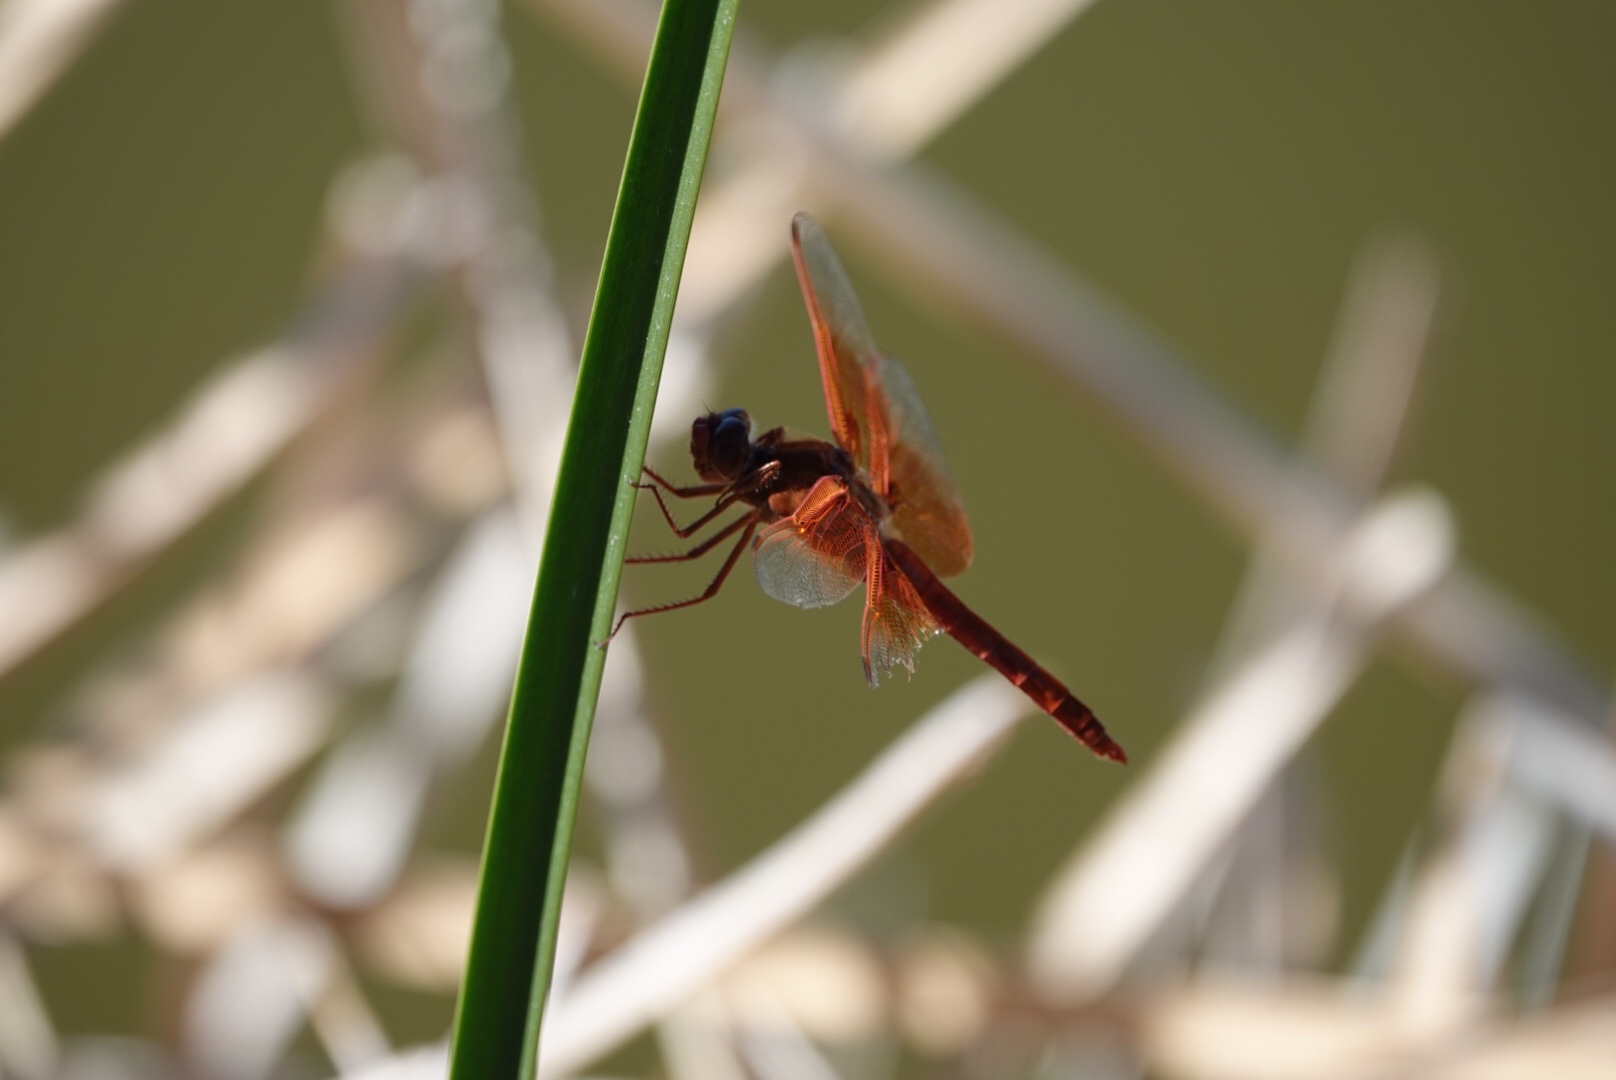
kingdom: Animalia
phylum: Arthropoda
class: Insecta
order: Odonata
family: Libellulidae
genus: Libellula
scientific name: Libellula saturata
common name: Flame skimmer
